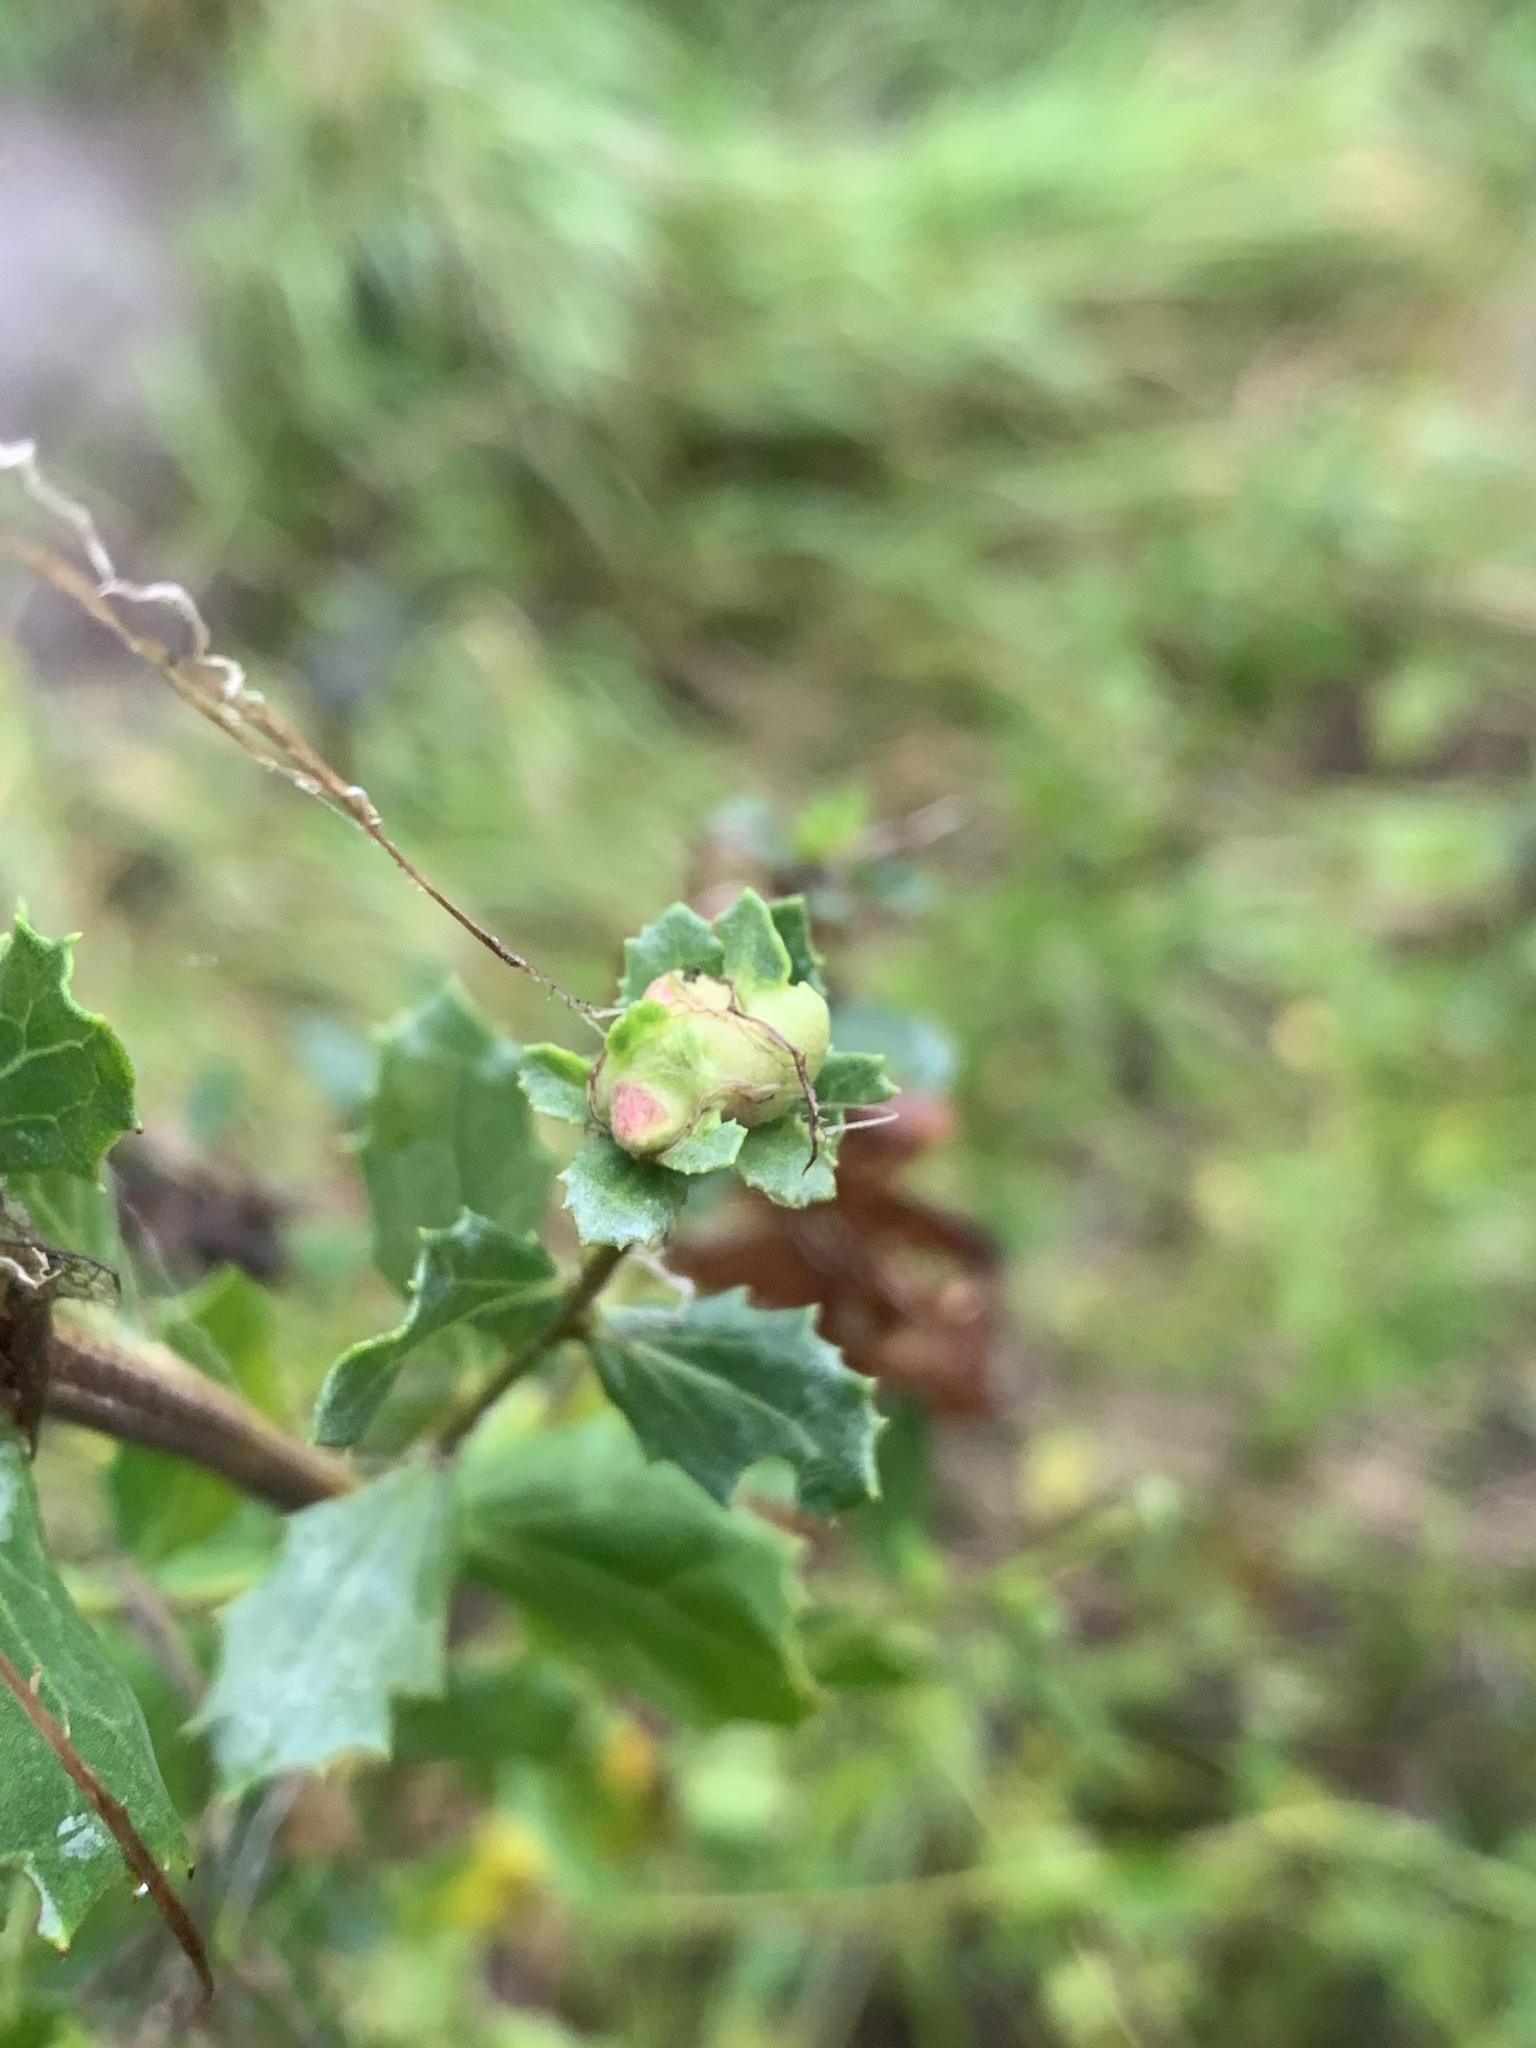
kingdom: Animalia
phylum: Arthropoda
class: Insecta
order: Diptera
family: Cecidomyiidae
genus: Rhopalomyia
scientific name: Rhopalomyia californica
